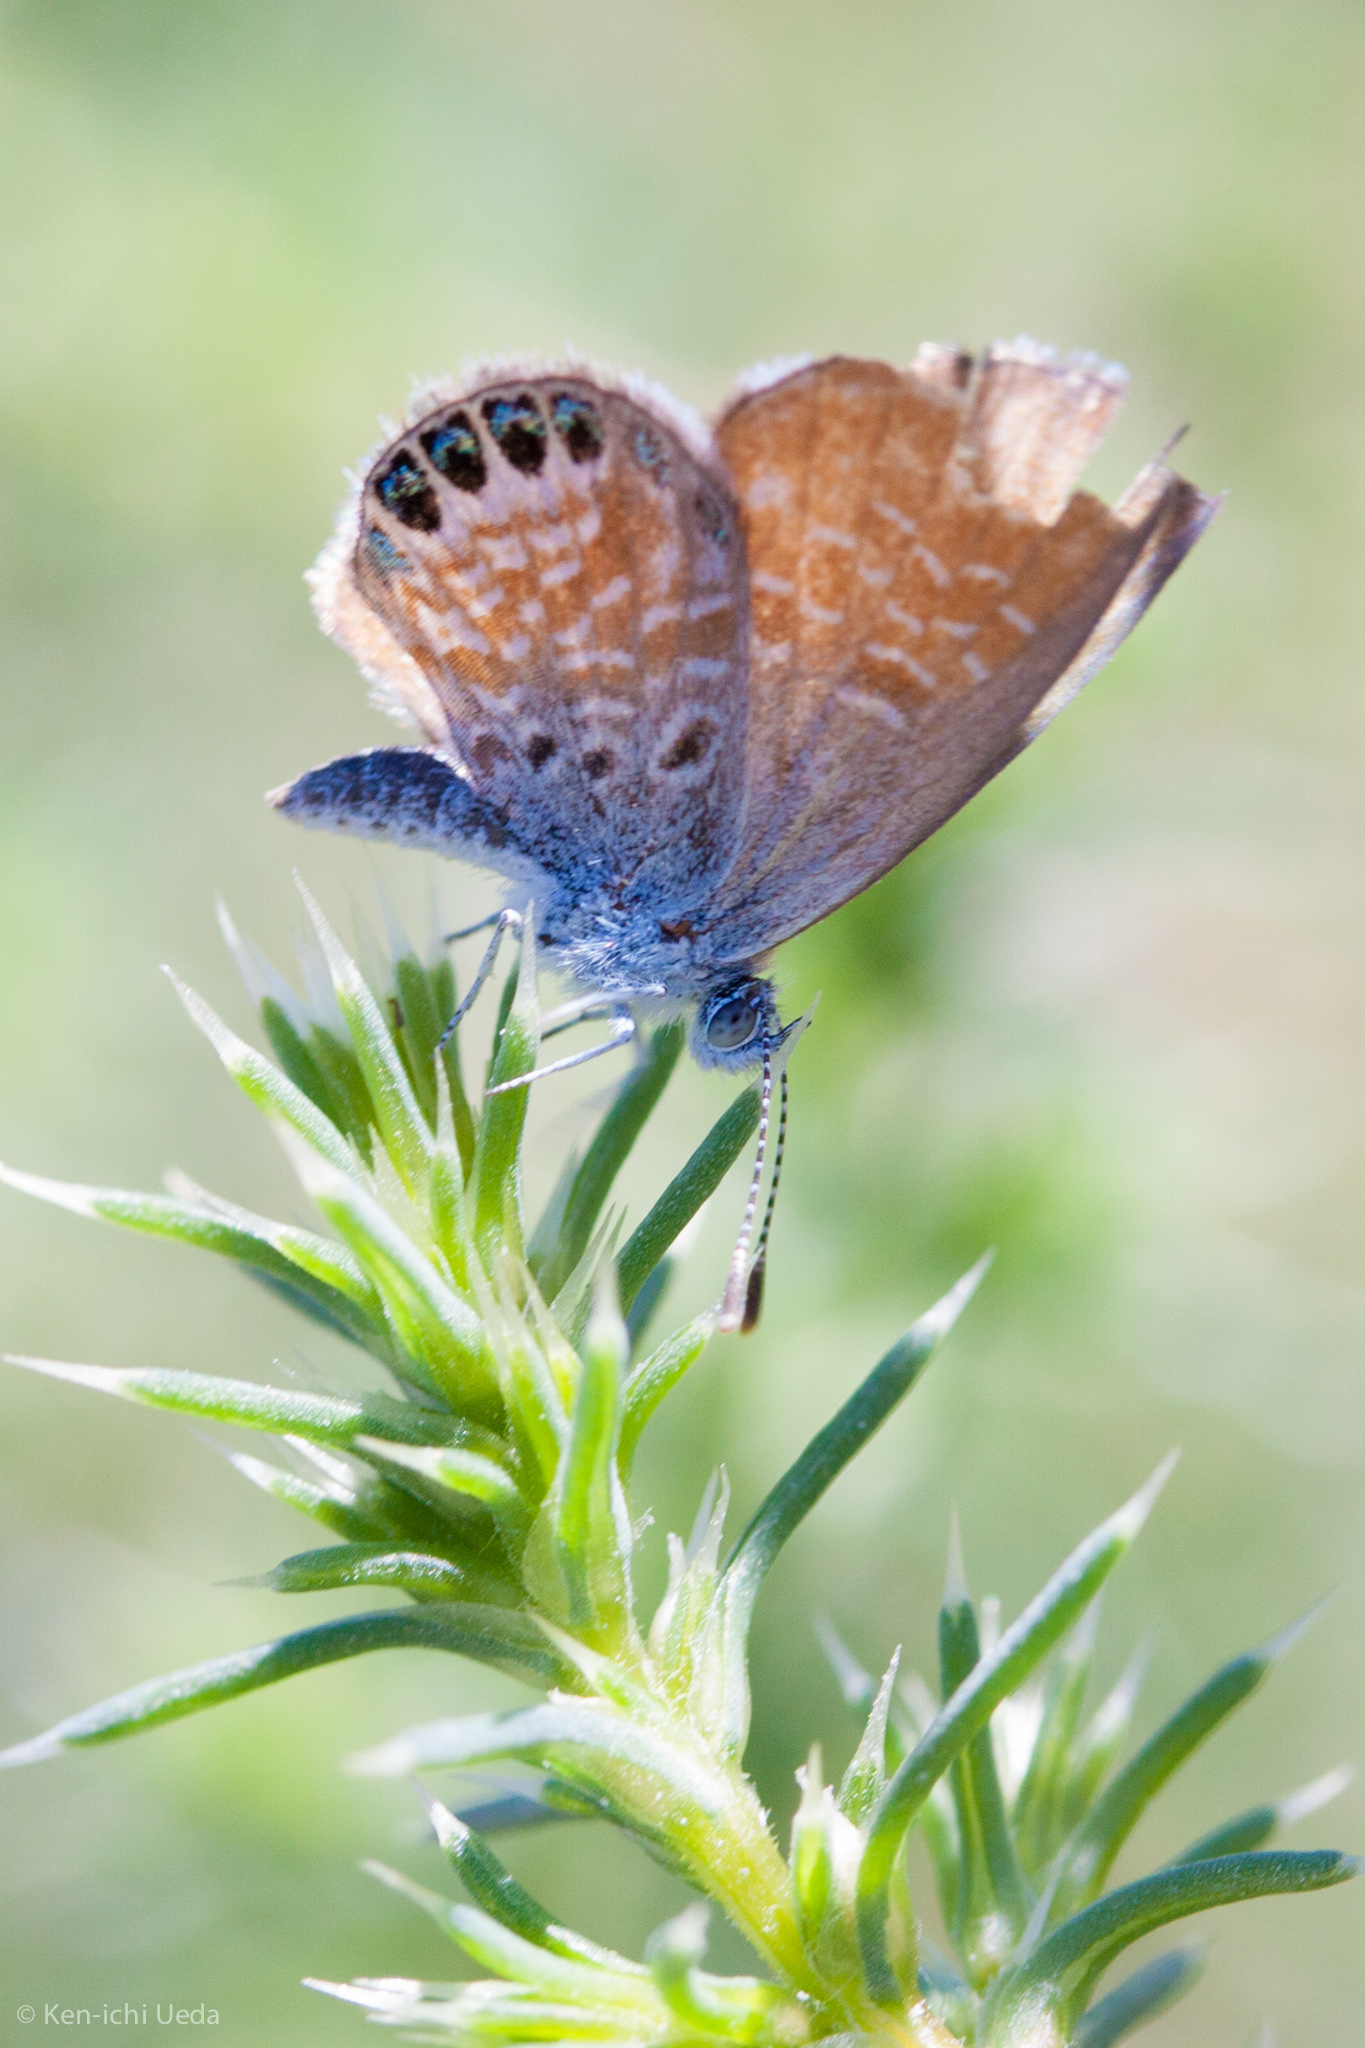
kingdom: Animalia
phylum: Arthropoda
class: Insecta
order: Lepidoptera
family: Lycaenidae
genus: Brephidium
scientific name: Brephidium exilis
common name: Pygmy blue
